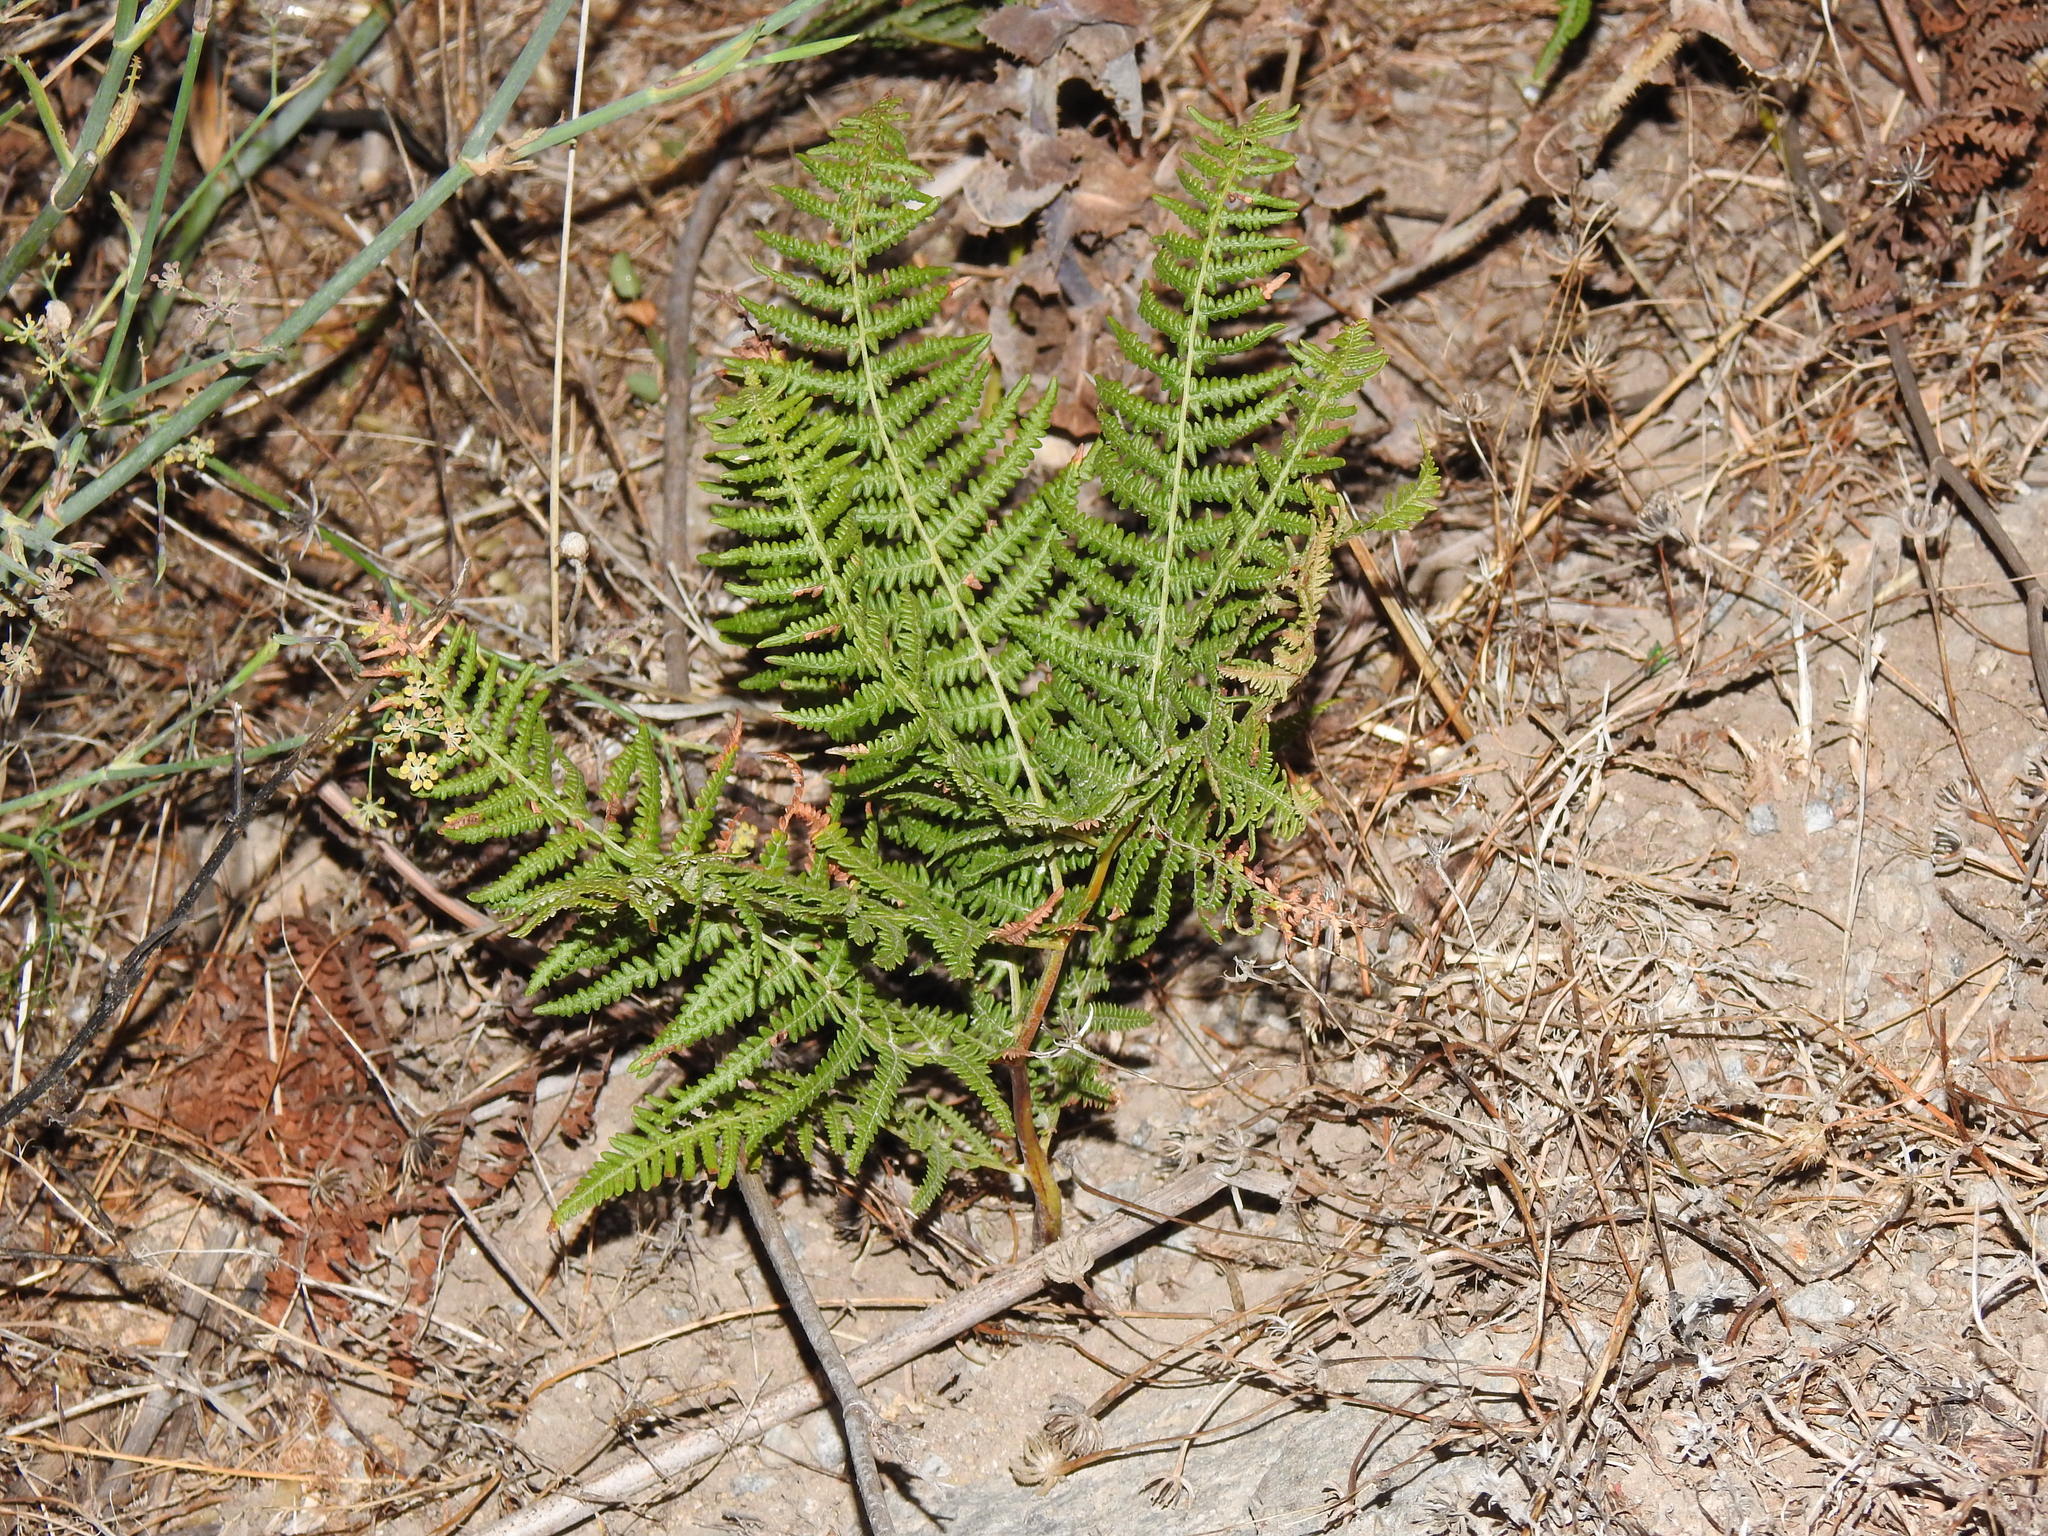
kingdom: Plantae
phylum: Tracheophyta
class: Polypodiopsida
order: Polypodiales
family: Dennstaedtiaceae
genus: Pteridium
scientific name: Pteridium aquilinum
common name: Bracken
